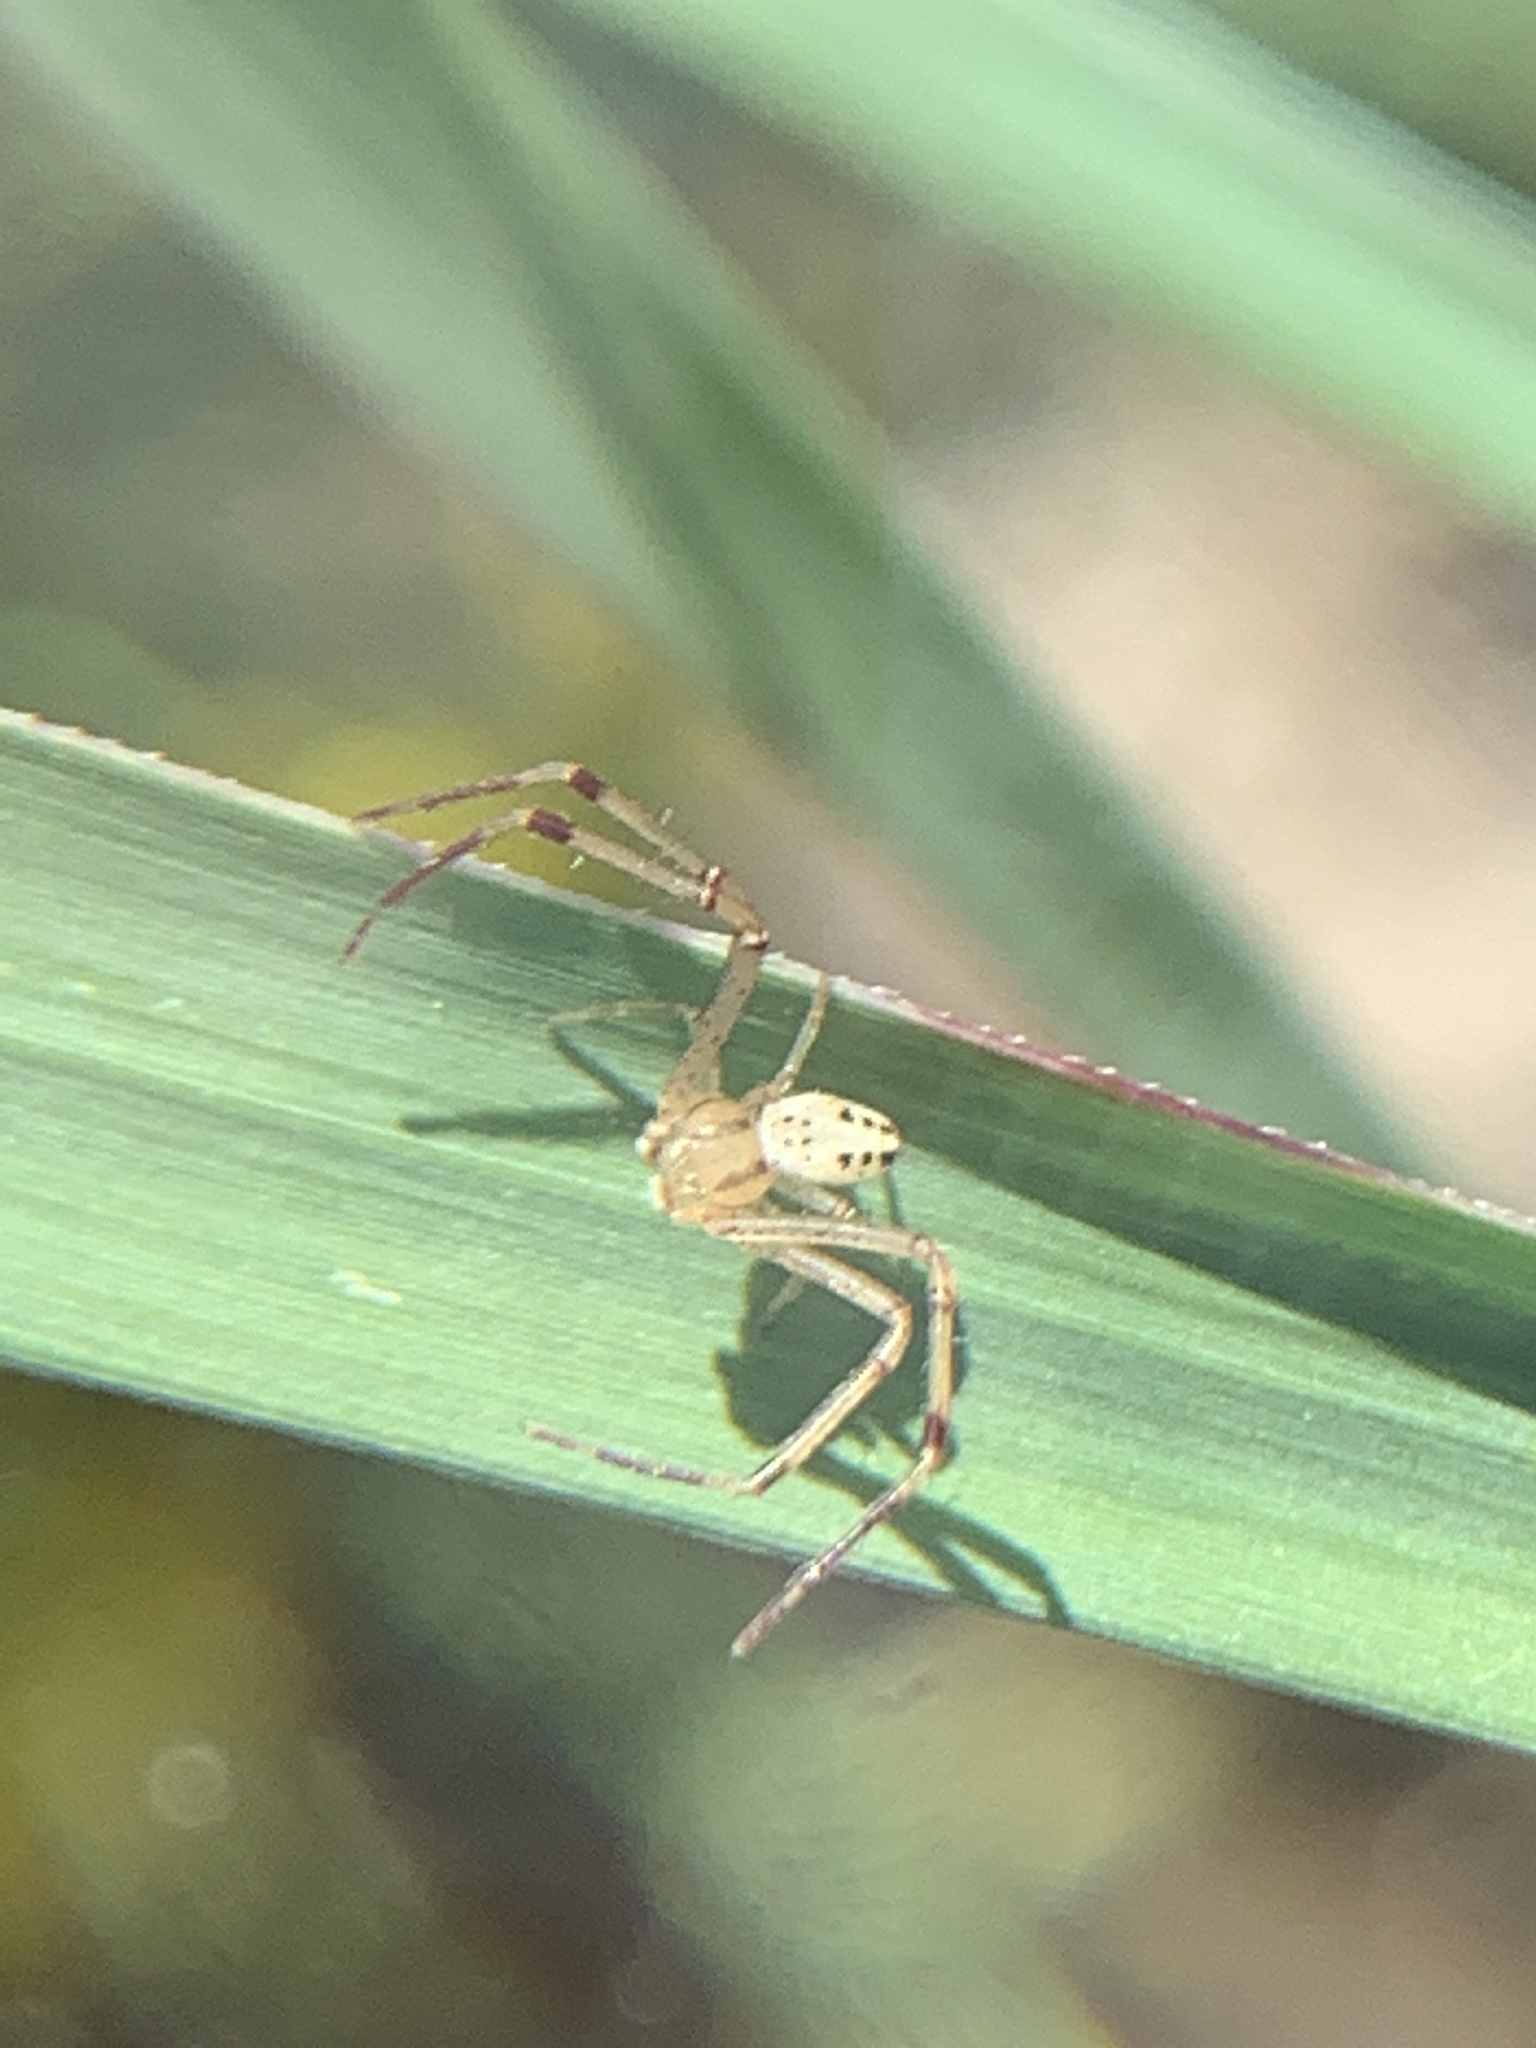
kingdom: Animalia
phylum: Arthropoda
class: Arachnida
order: Araneae
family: Thomisidae
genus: Mecaphesa
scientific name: Mecaphesa celer
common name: Crab spiders
